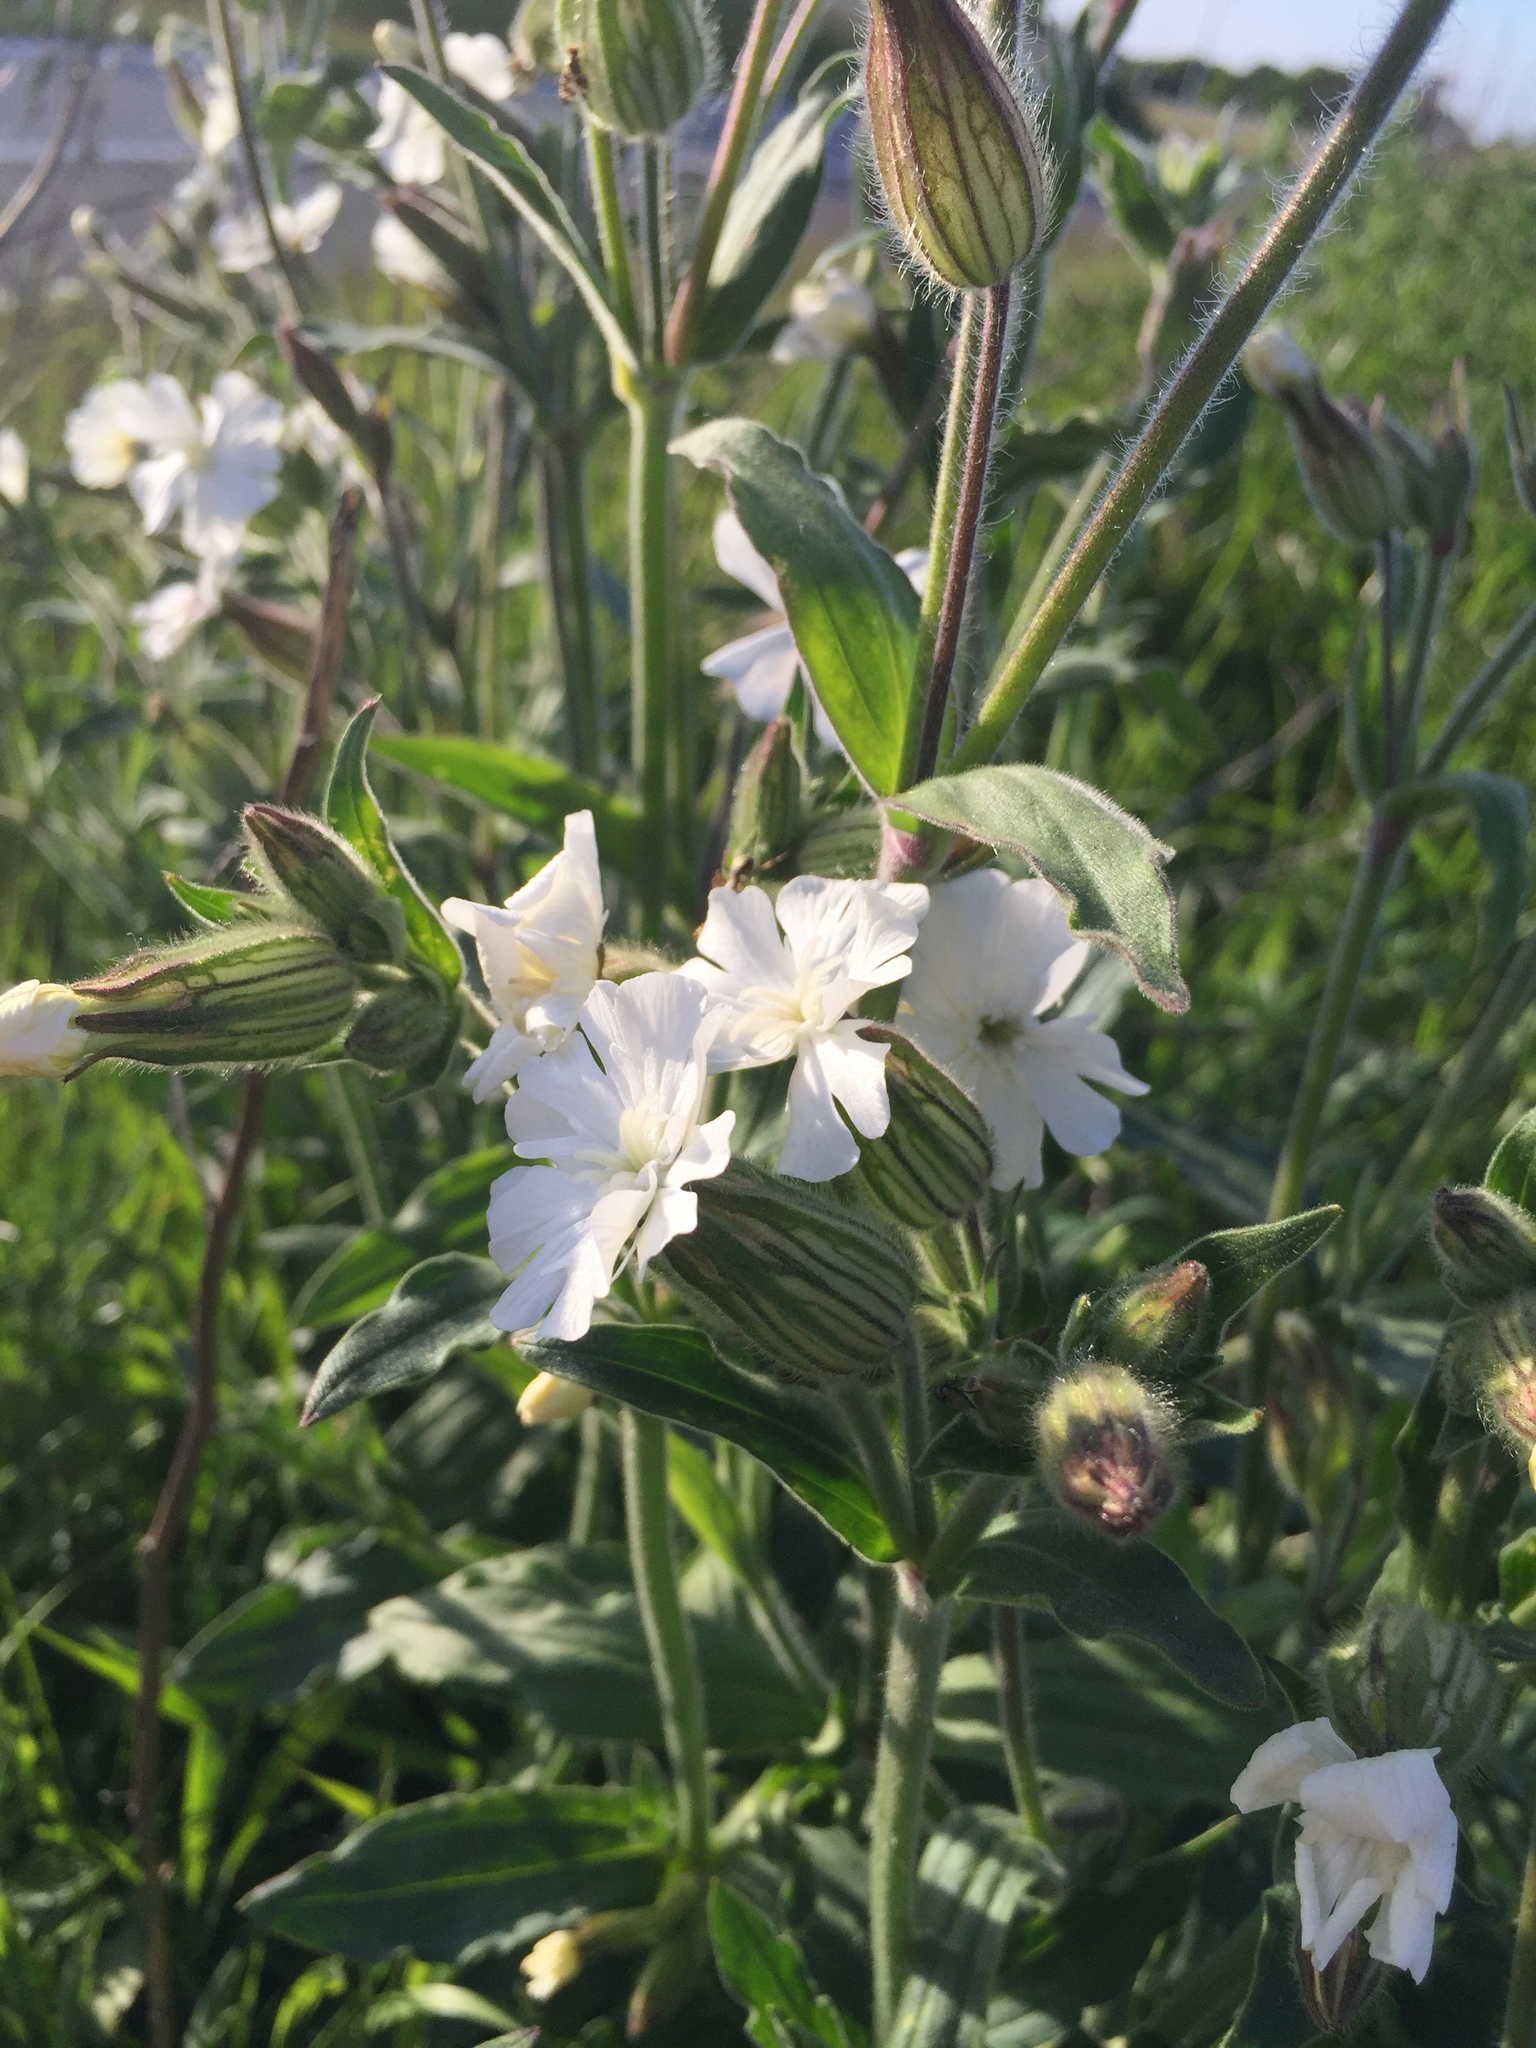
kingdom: Plantae
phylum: Tracheophyta
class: Magnoliopsida
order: Caryophyllales
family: Caryophyllaceae
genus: Silene
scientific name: Silene latifolia
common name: White campion
